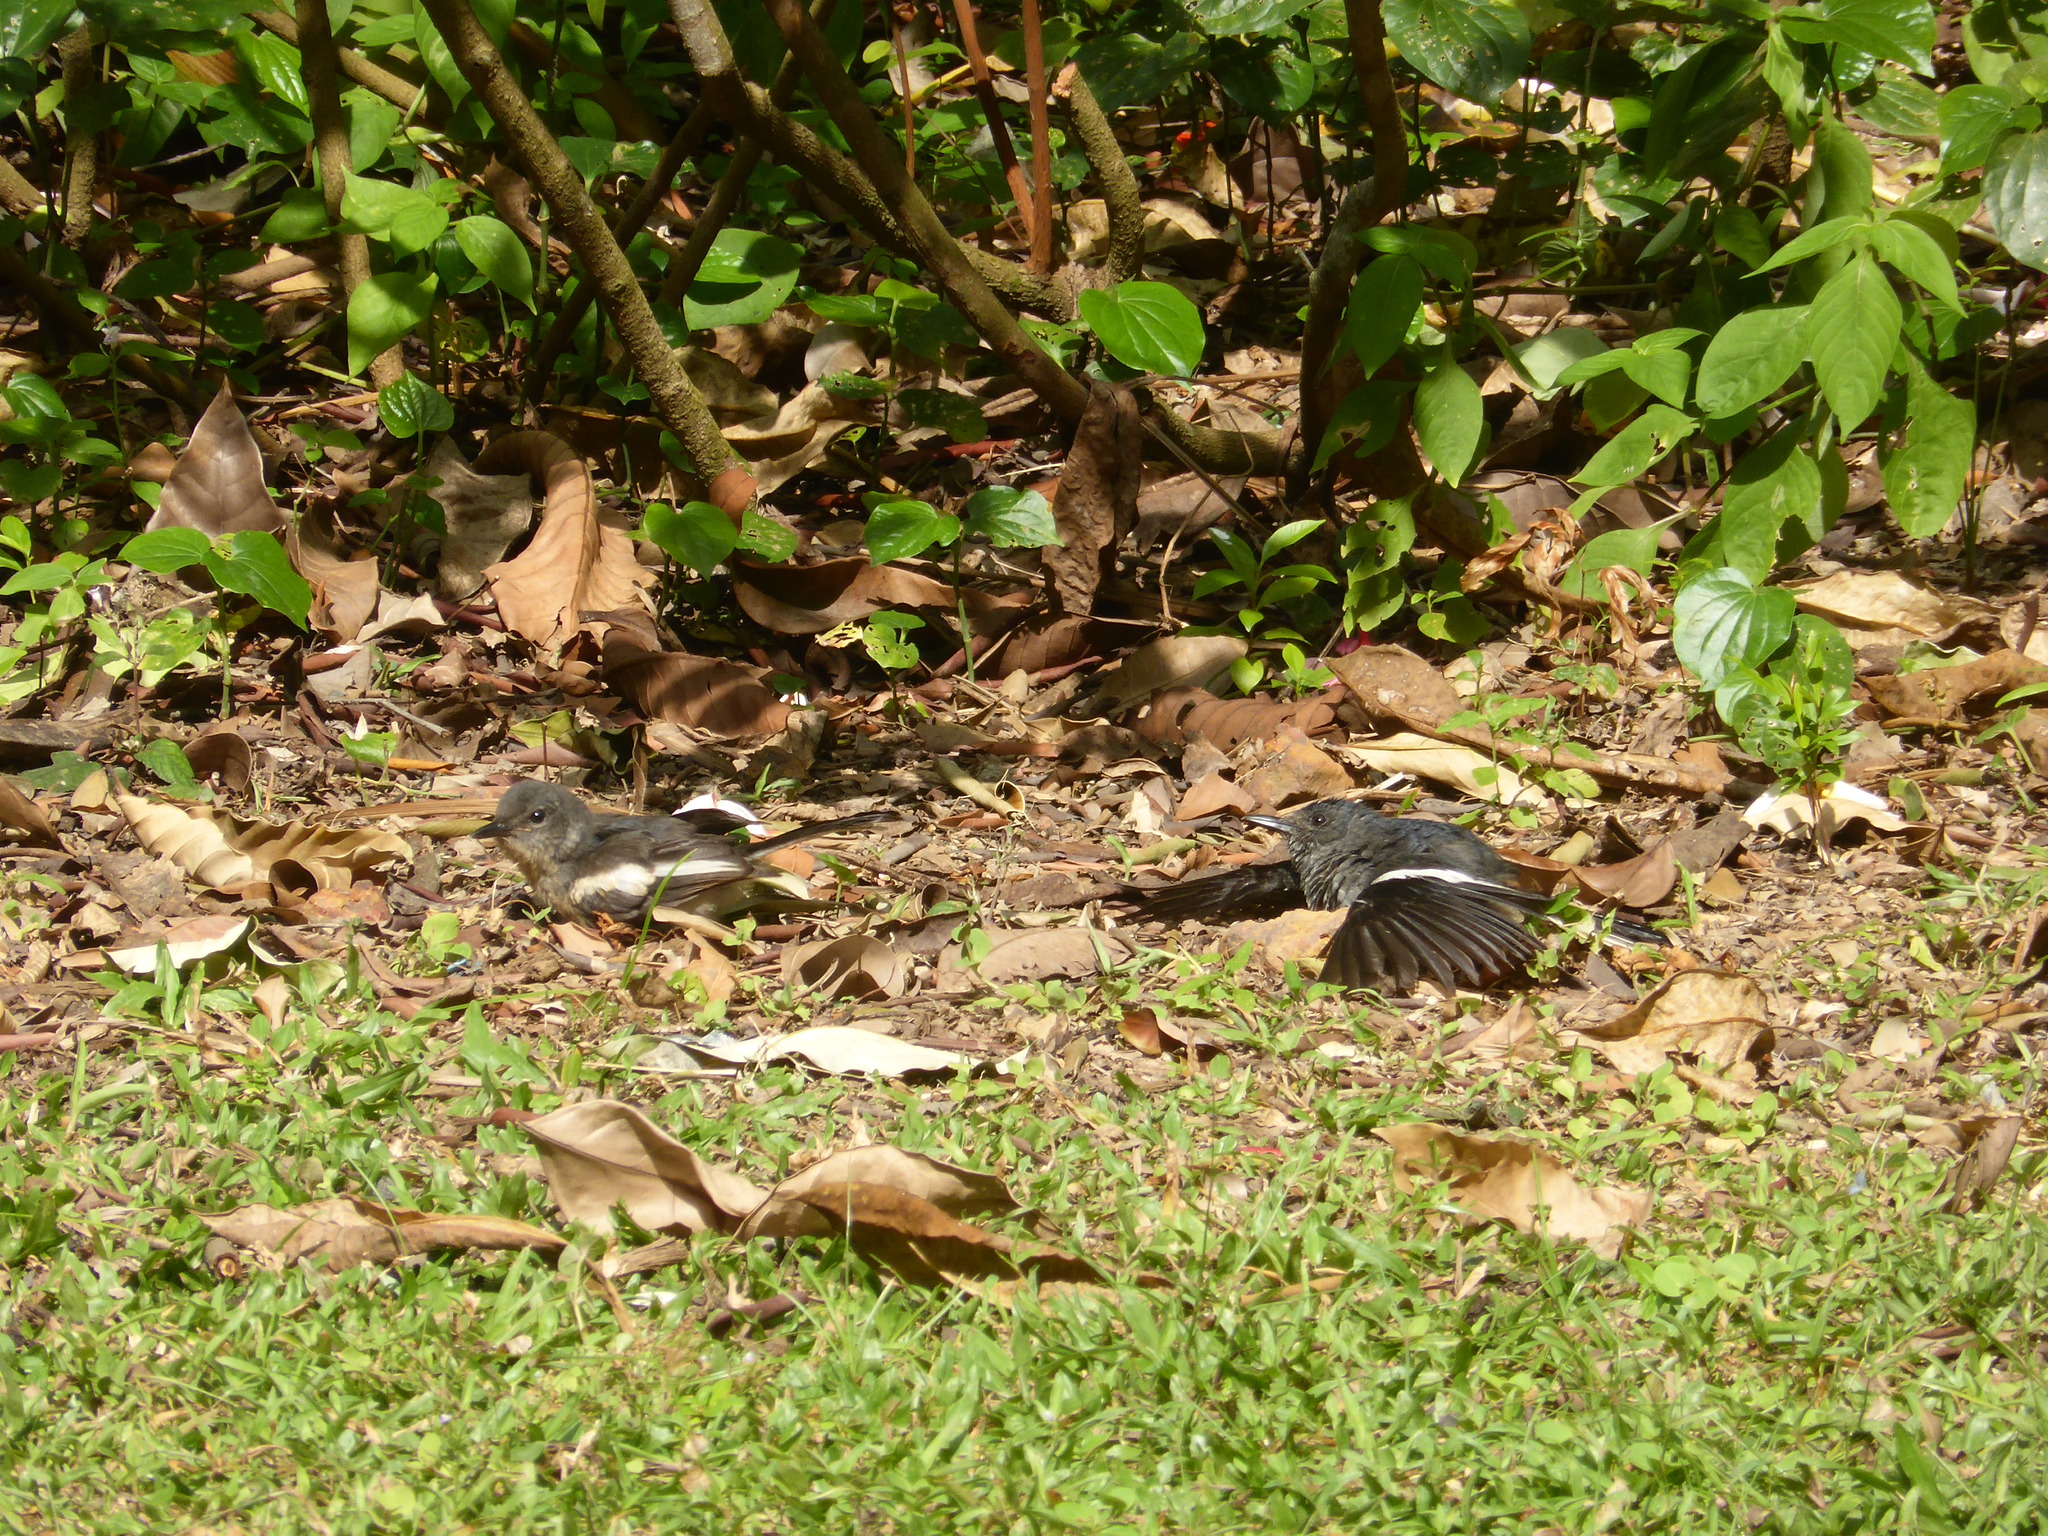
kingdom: Animalia
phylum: Chordata
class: Aves
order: Passeriformes
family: Muscicapidae
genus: Copsychus
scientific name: Copsychus saularis
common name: Oriental magpie-robin
